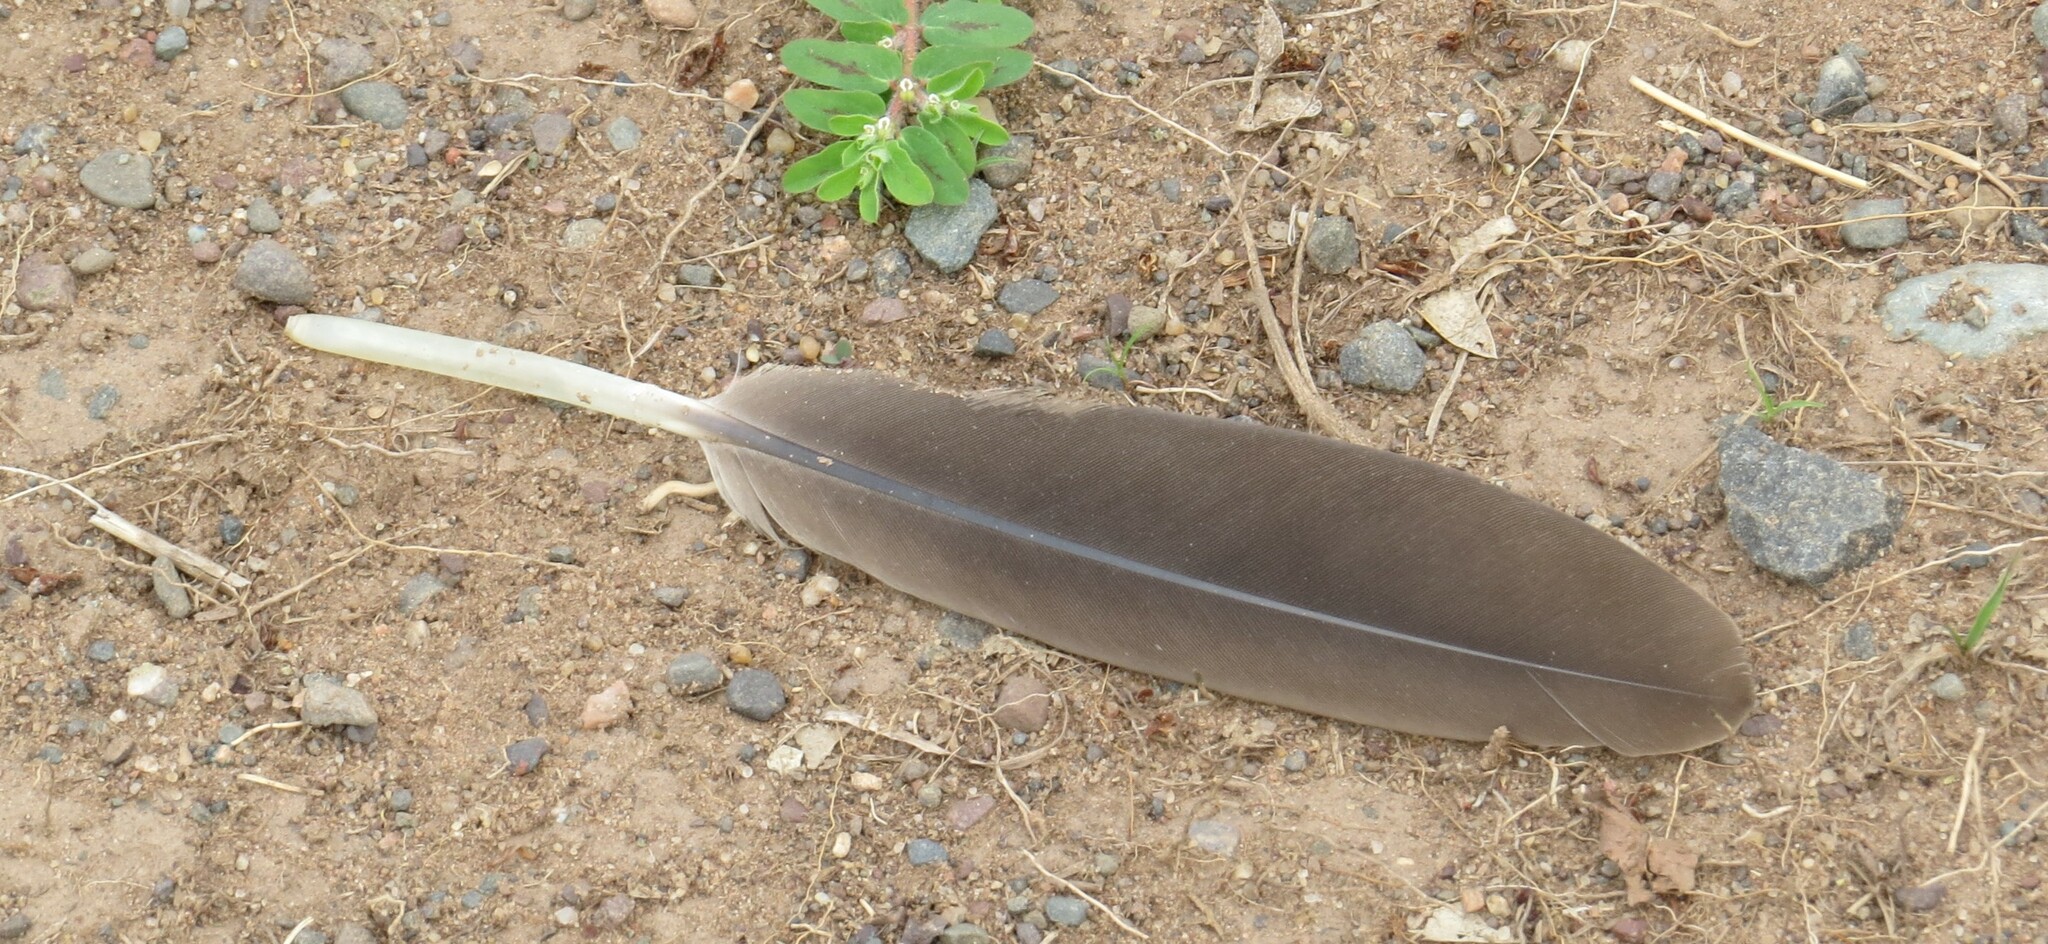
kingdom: Animalia
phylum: Chordata
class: Aves
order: Anseriformes
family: Anatidae
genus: Branta
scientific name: Branta canadensis
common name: Canada goose
